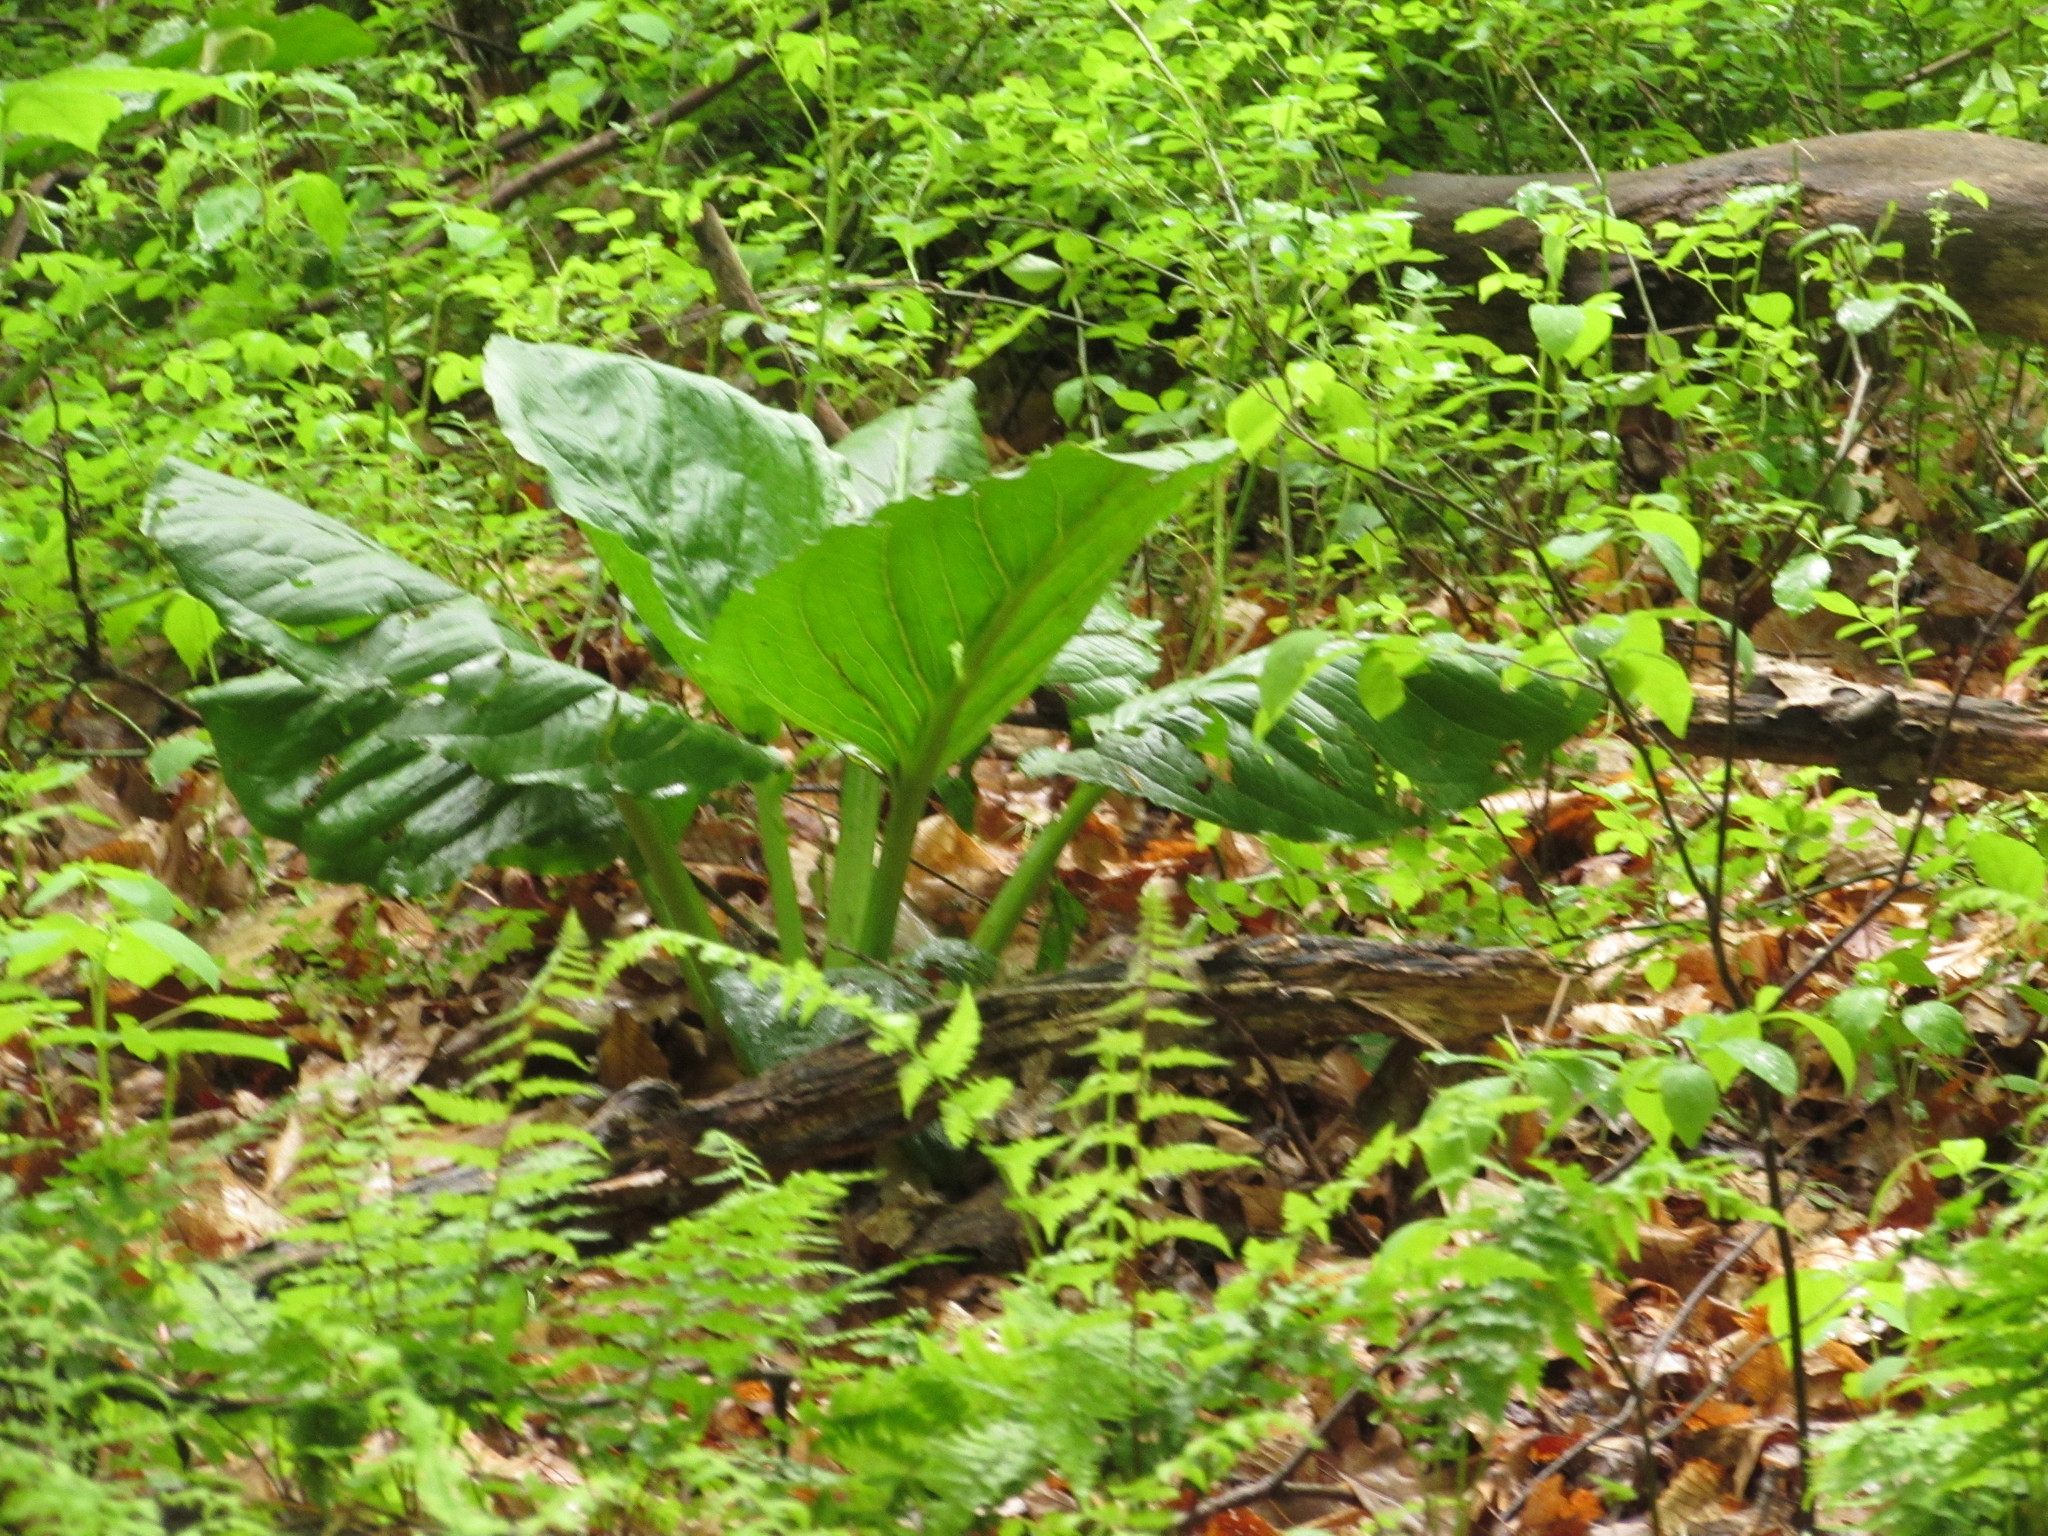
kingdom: Plantae
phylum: Tracheophyta
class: Liliopsida
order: Alismatales
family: Araceae
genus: Symplocarpus
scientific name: Symplocarpus foetidus
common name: Eastern skunk cabbage
